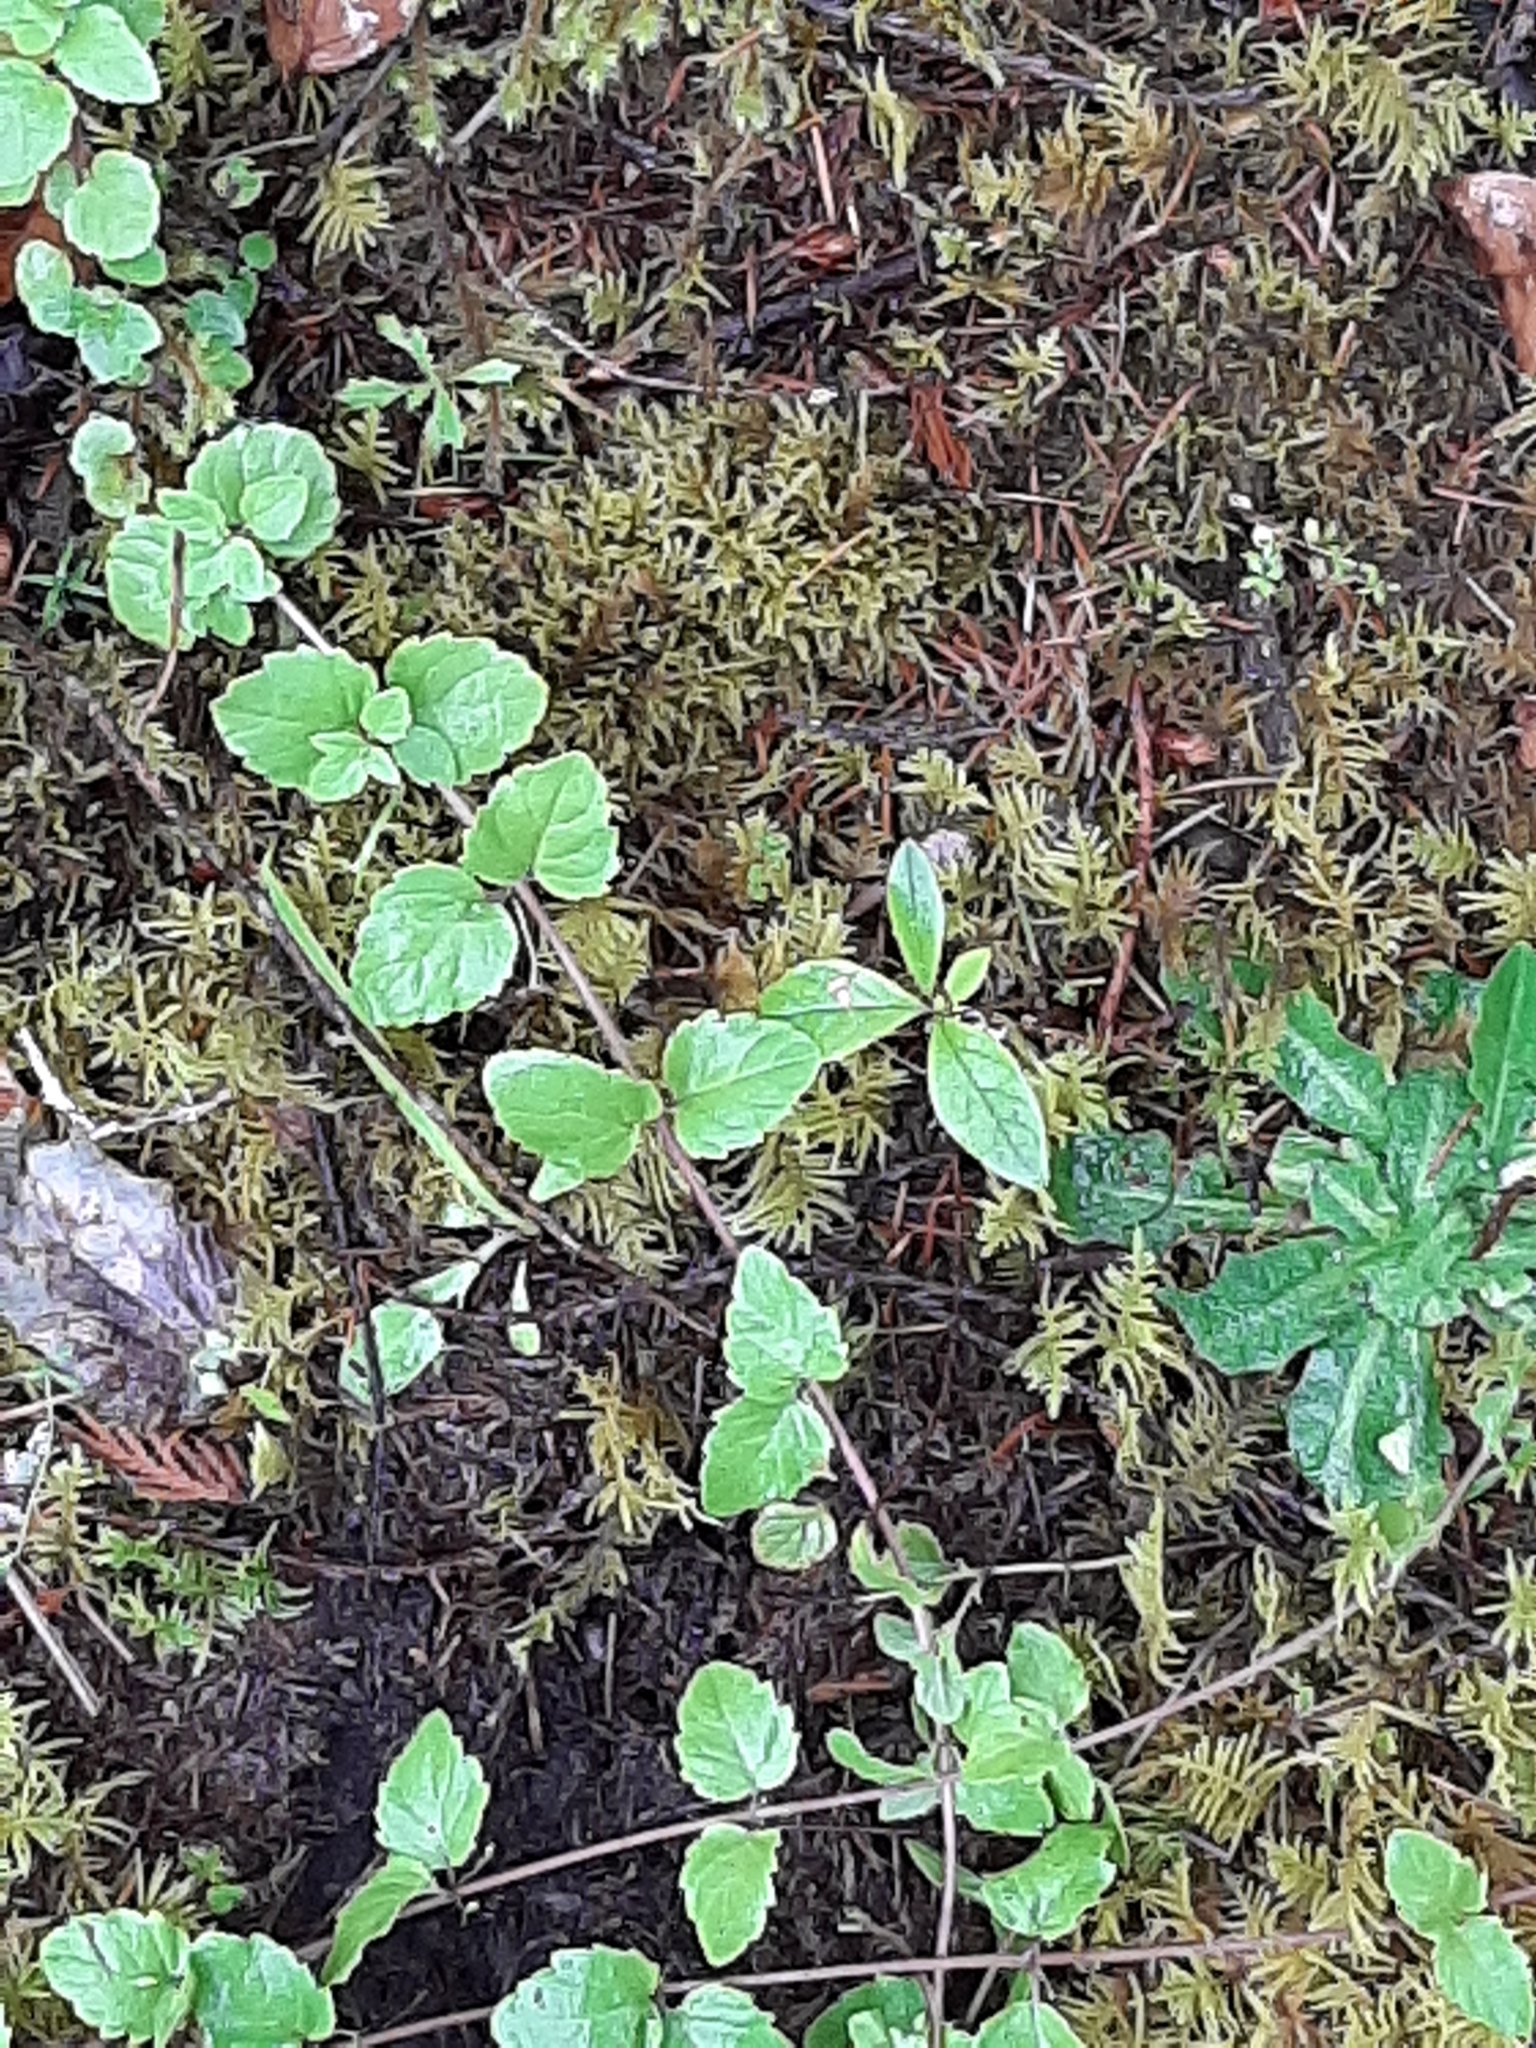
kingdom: Plantae
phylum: Tracheophyta
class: Magnoliopsida
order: Lamiales
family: Lamiaceae
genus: Micromeria
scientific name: Micromeria douglasii
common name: Yerba buena
